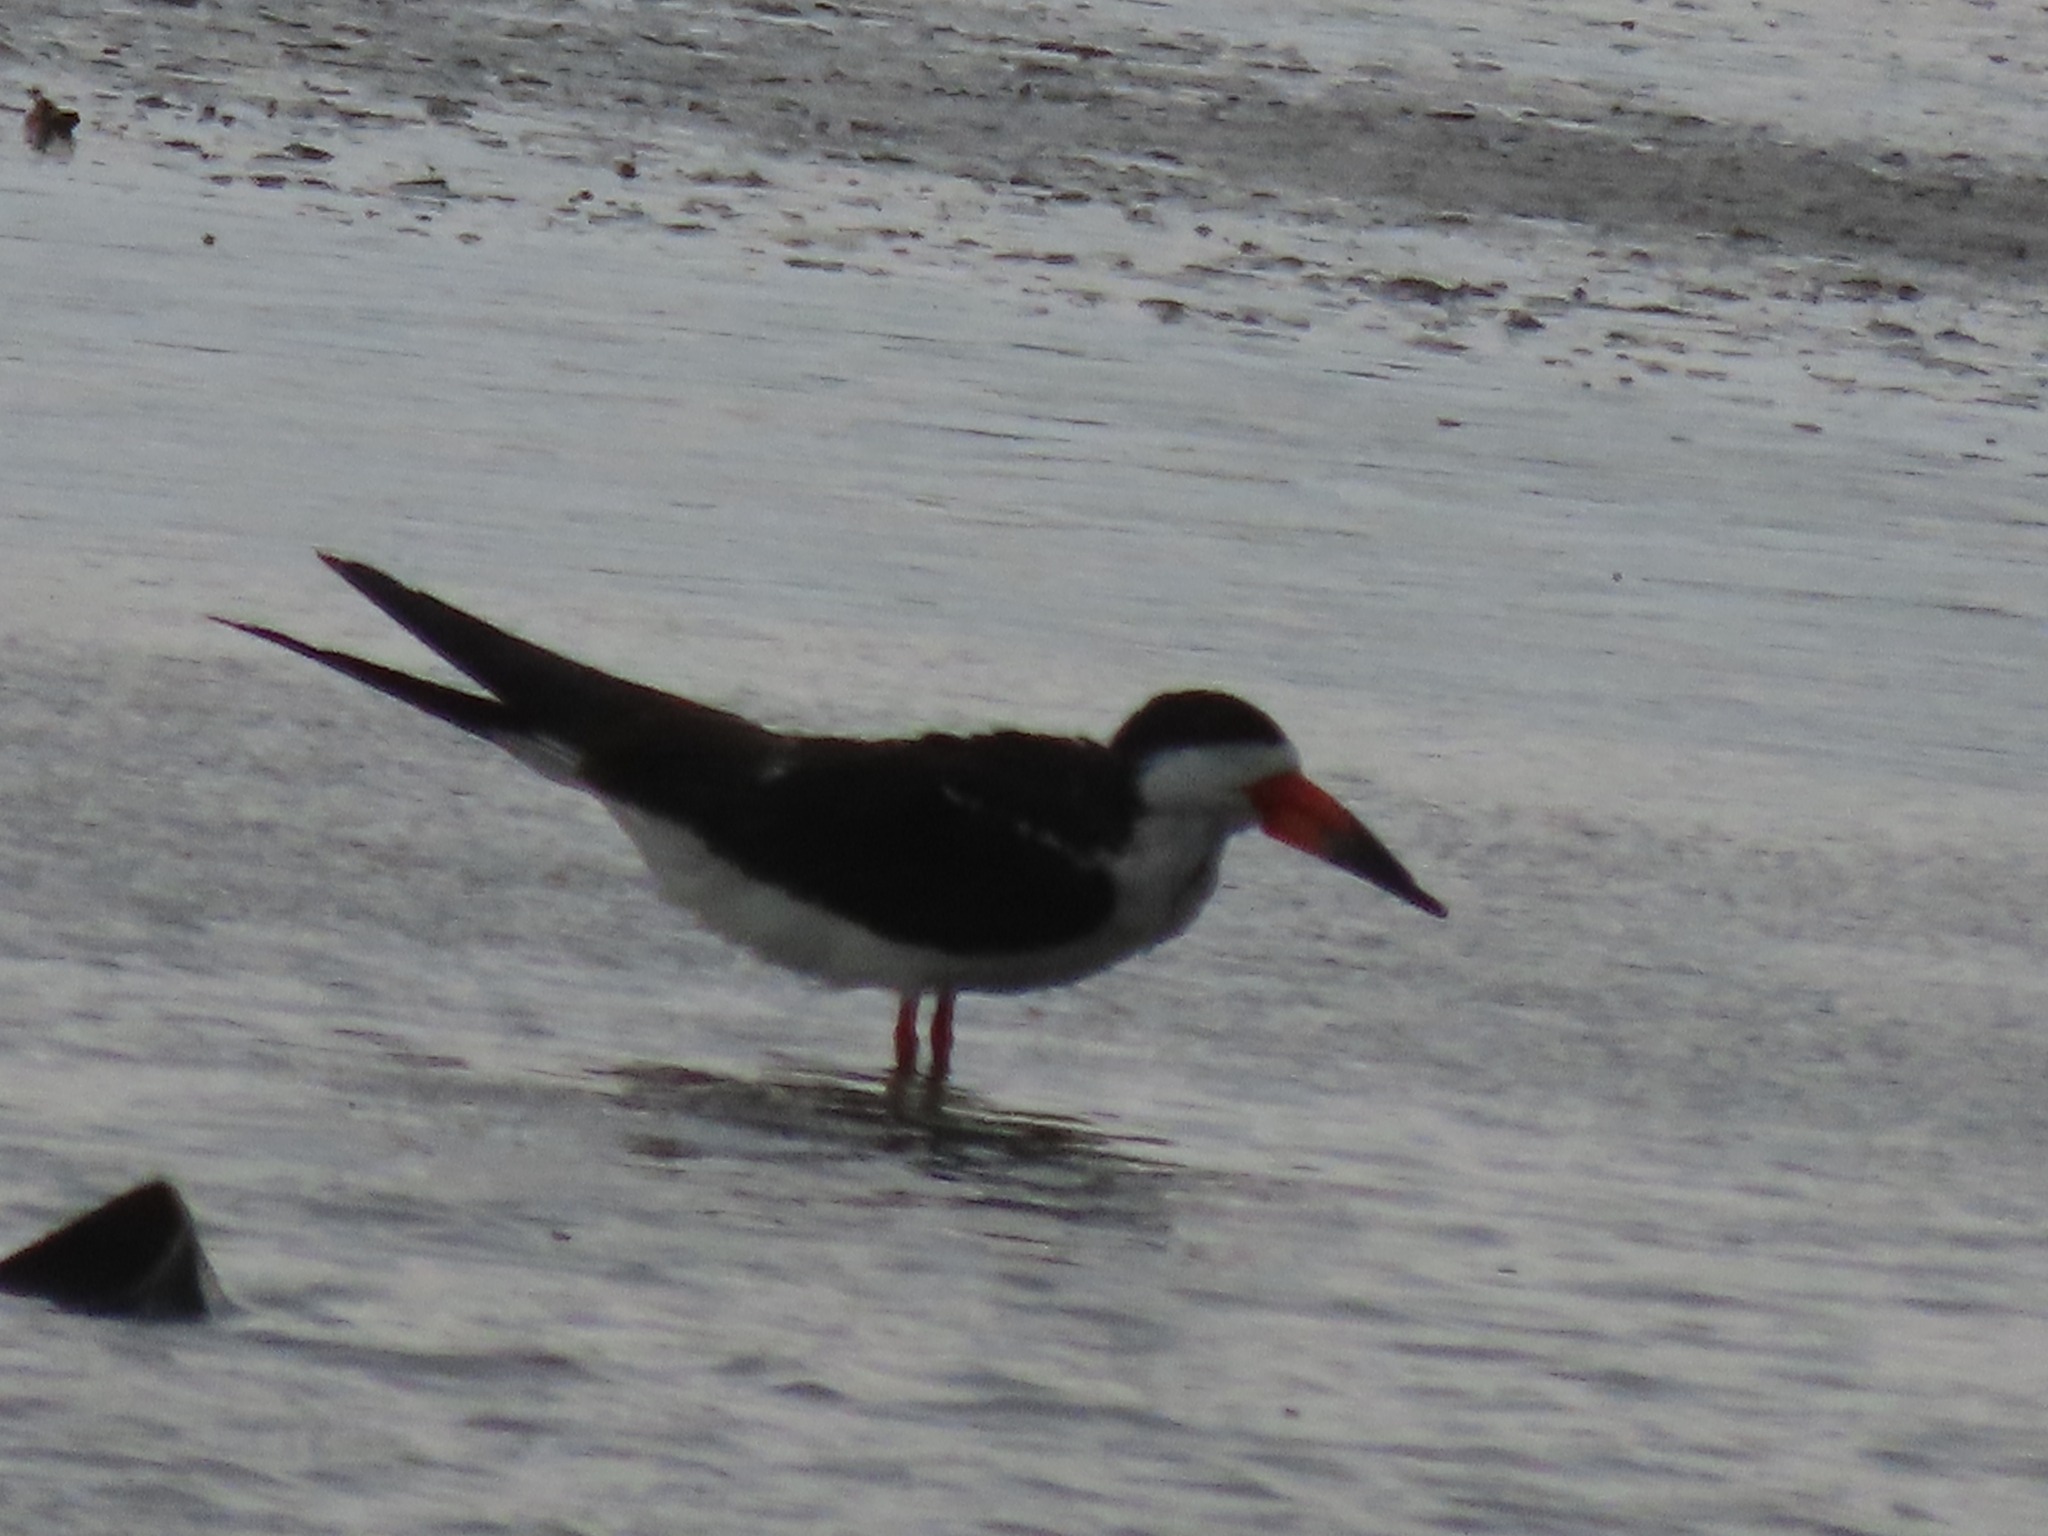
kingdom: Animalia
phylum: Chordata
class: Aves
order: Charadriiformes
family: Laridae
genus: Rynchops
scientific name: Rynchops niger
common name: Black skimmer
